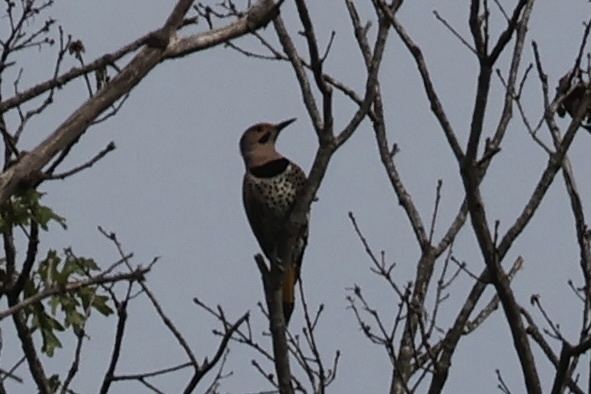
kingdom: Animalia
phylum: Chordata
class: Aves
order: Piciformes
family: Picidae
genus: Colaptes
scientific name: Colaptes auratus
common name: Northern flicker
